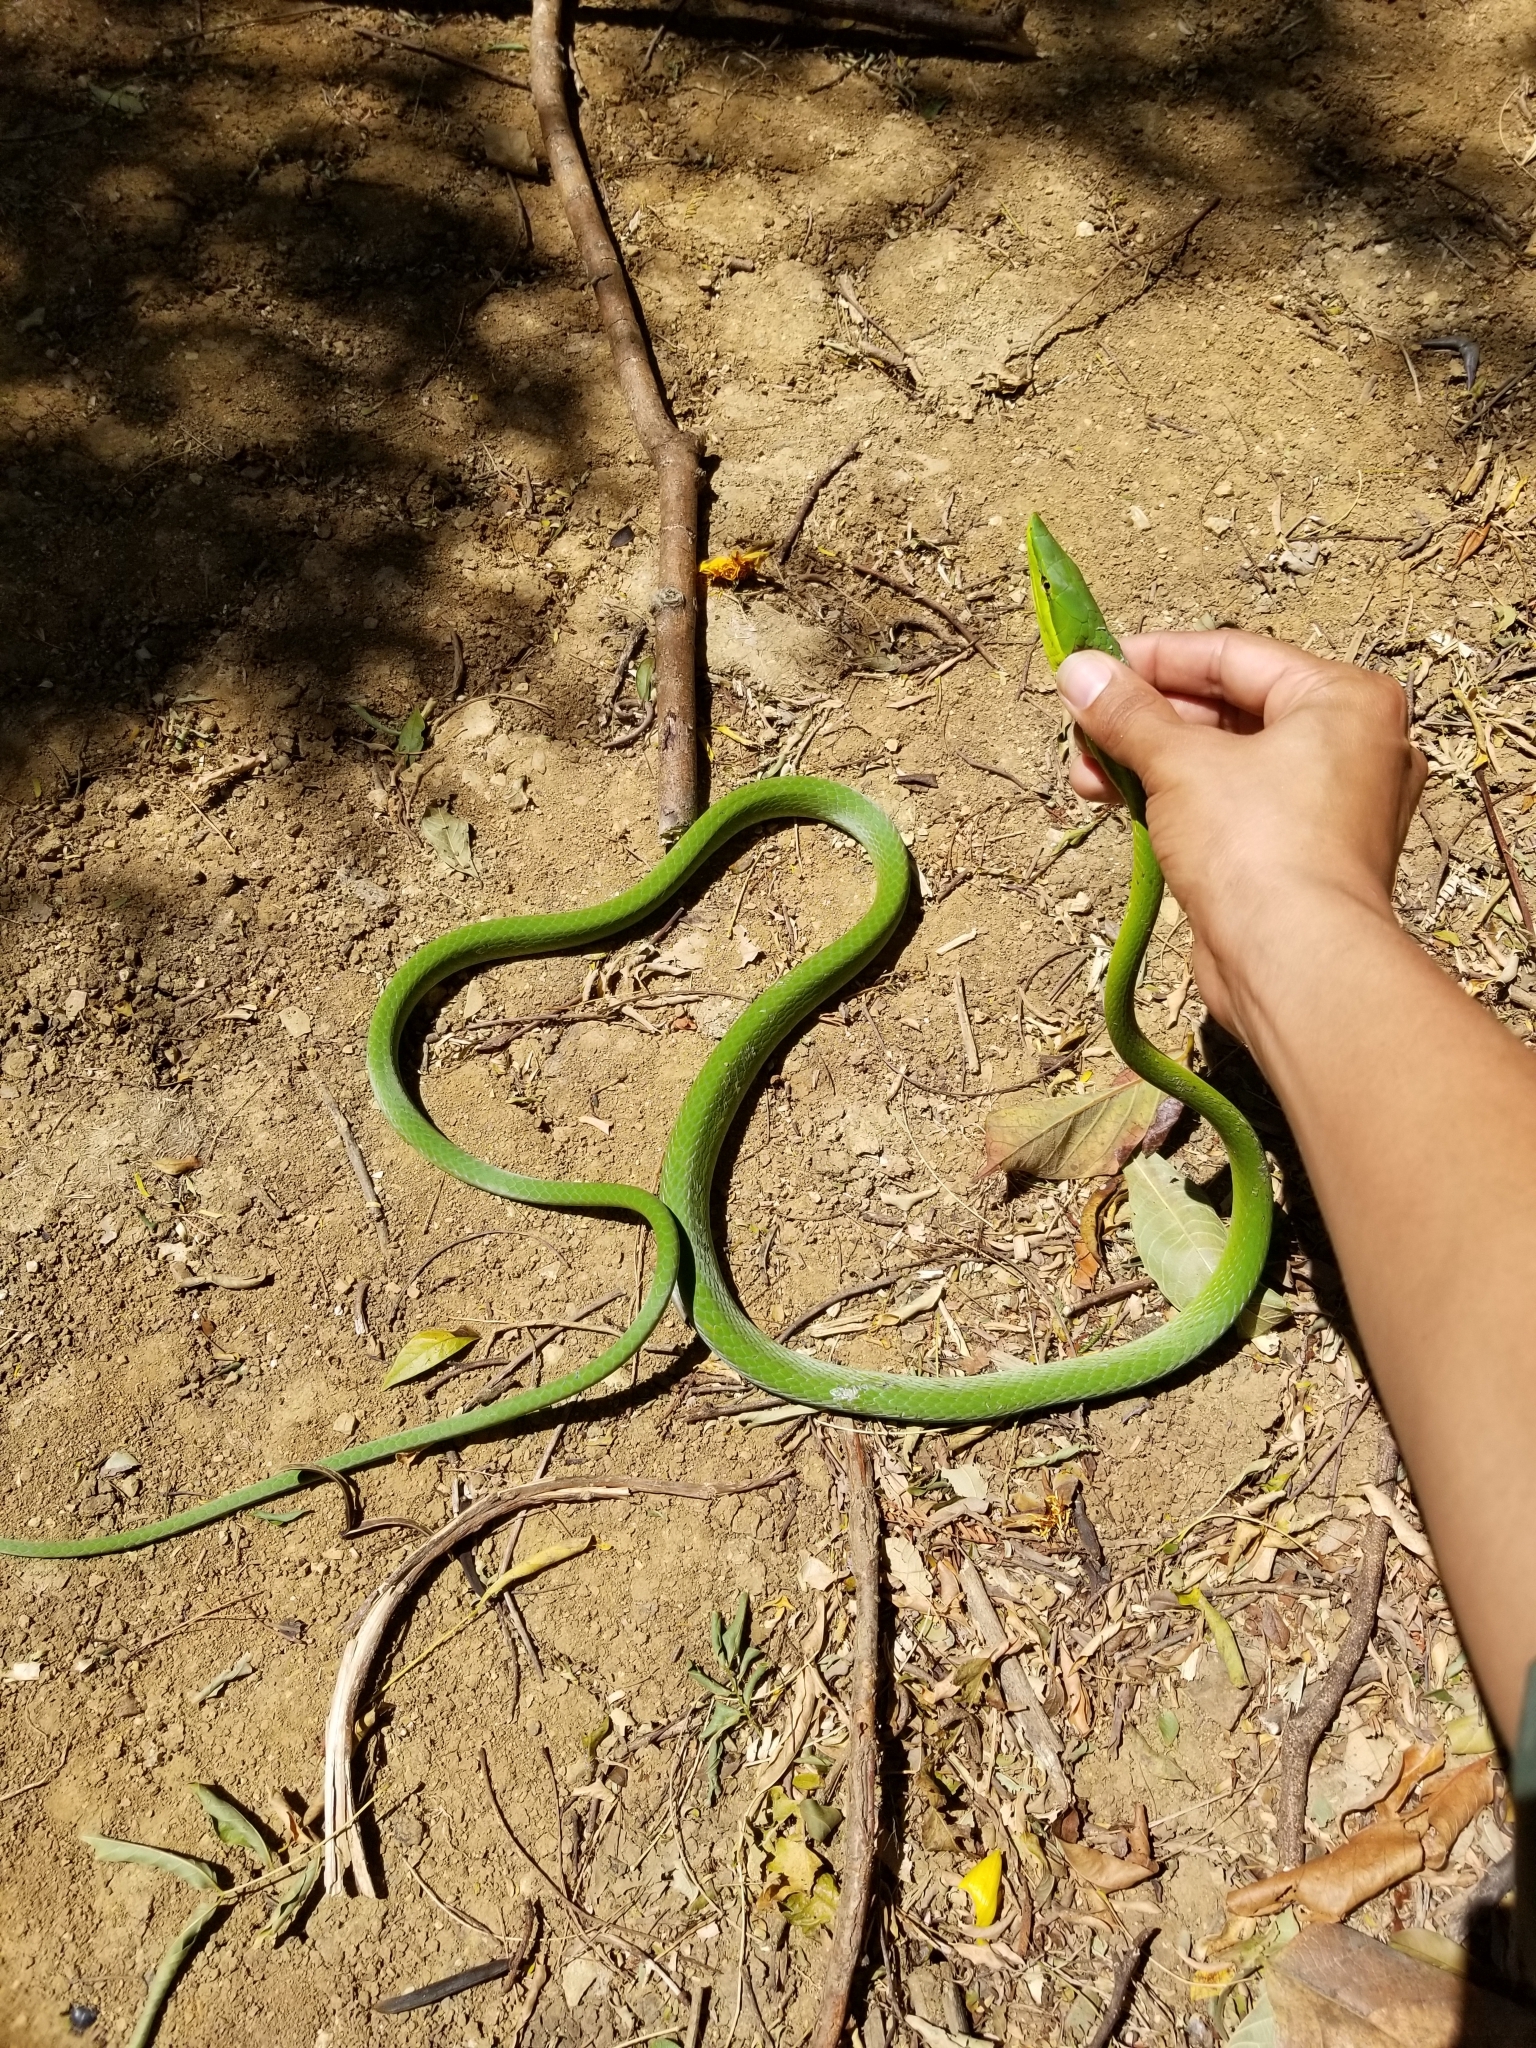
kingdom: Animalia
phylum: Chordata
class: Squamata
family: Colubridae
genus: Oxybelis
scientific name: Oxybelis fulgidus
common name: Green vine snake
